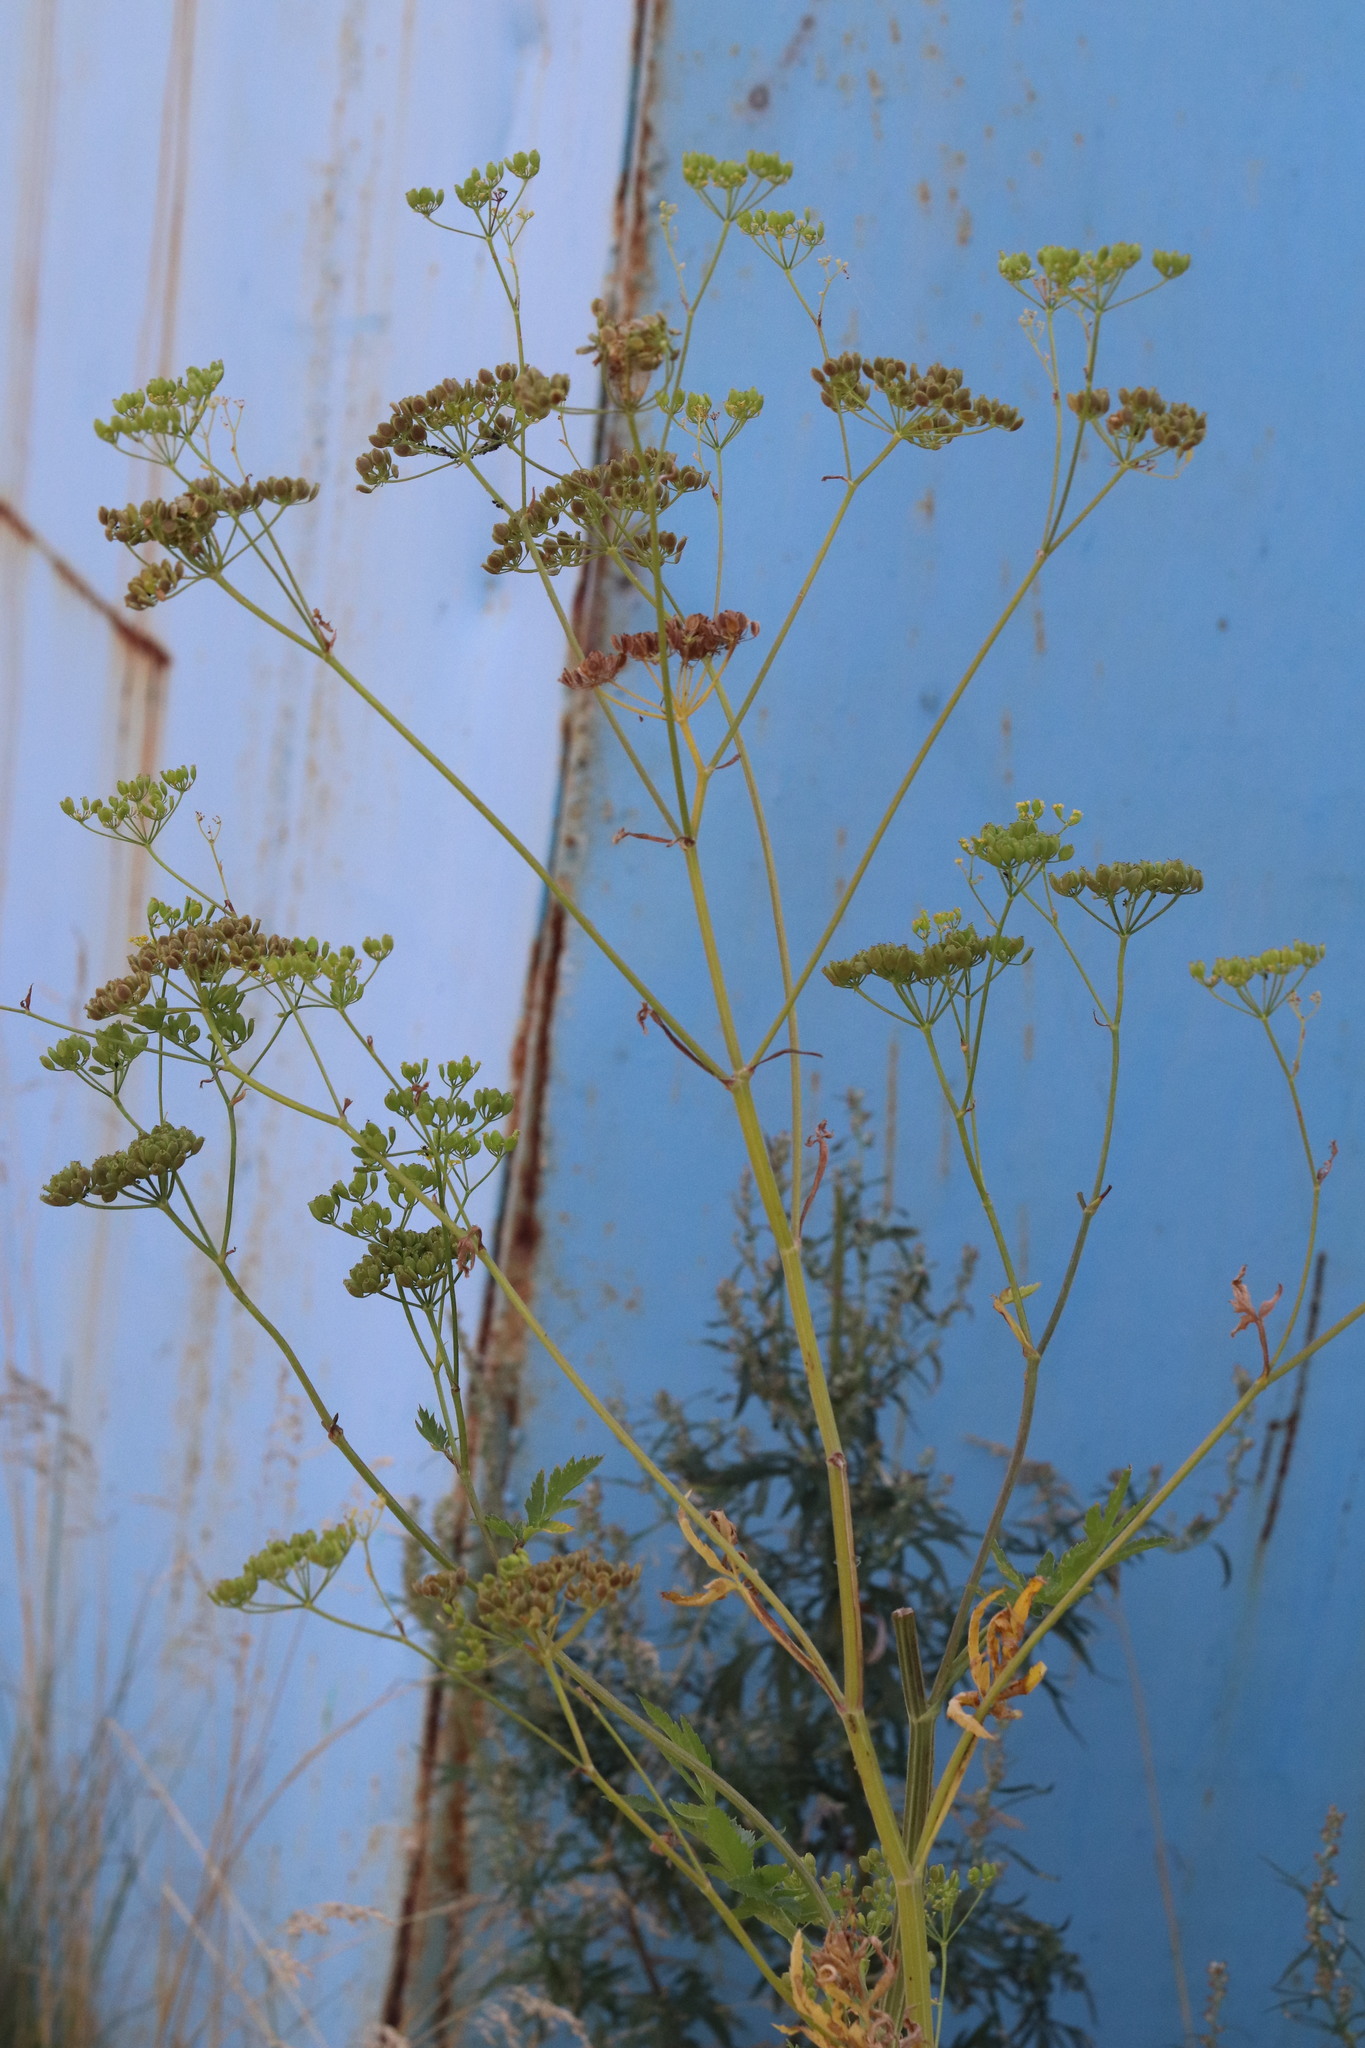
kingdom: Plantae
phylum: Tracheophyta
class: Magnoliopsida
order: Apiales
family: Apiaceae
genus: Pastinaca
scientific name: Pastinaca sativa
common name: Wild parsnip
